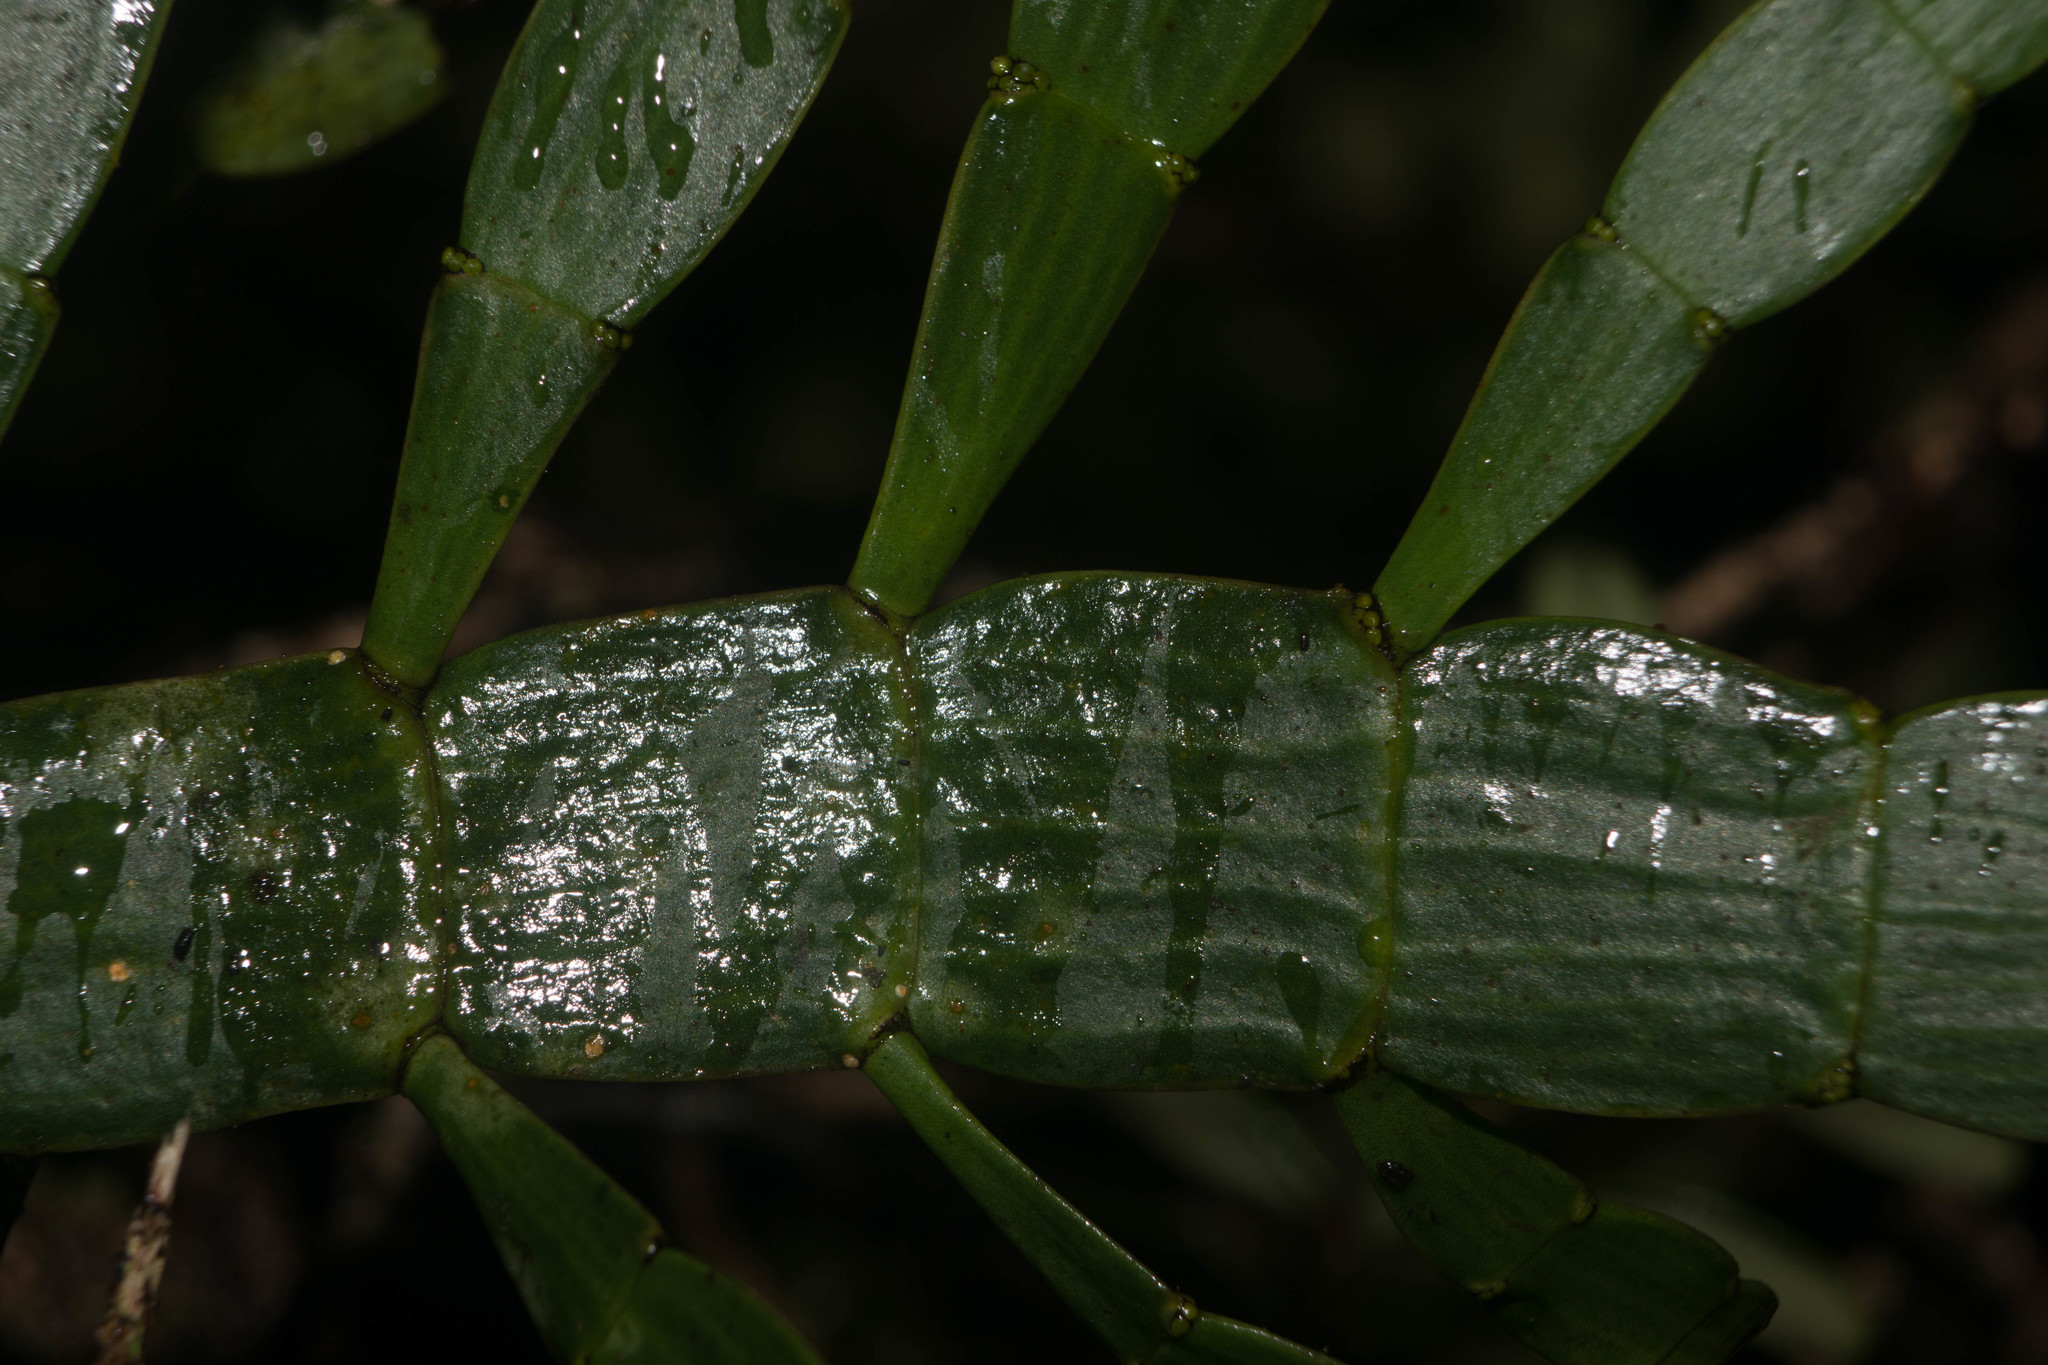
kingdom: Plantae
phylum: Tracheophyta
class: Magnoliopsida
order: Santalales
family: Viscaceae
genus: Korthalsella
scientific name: Korthalsella latissima
